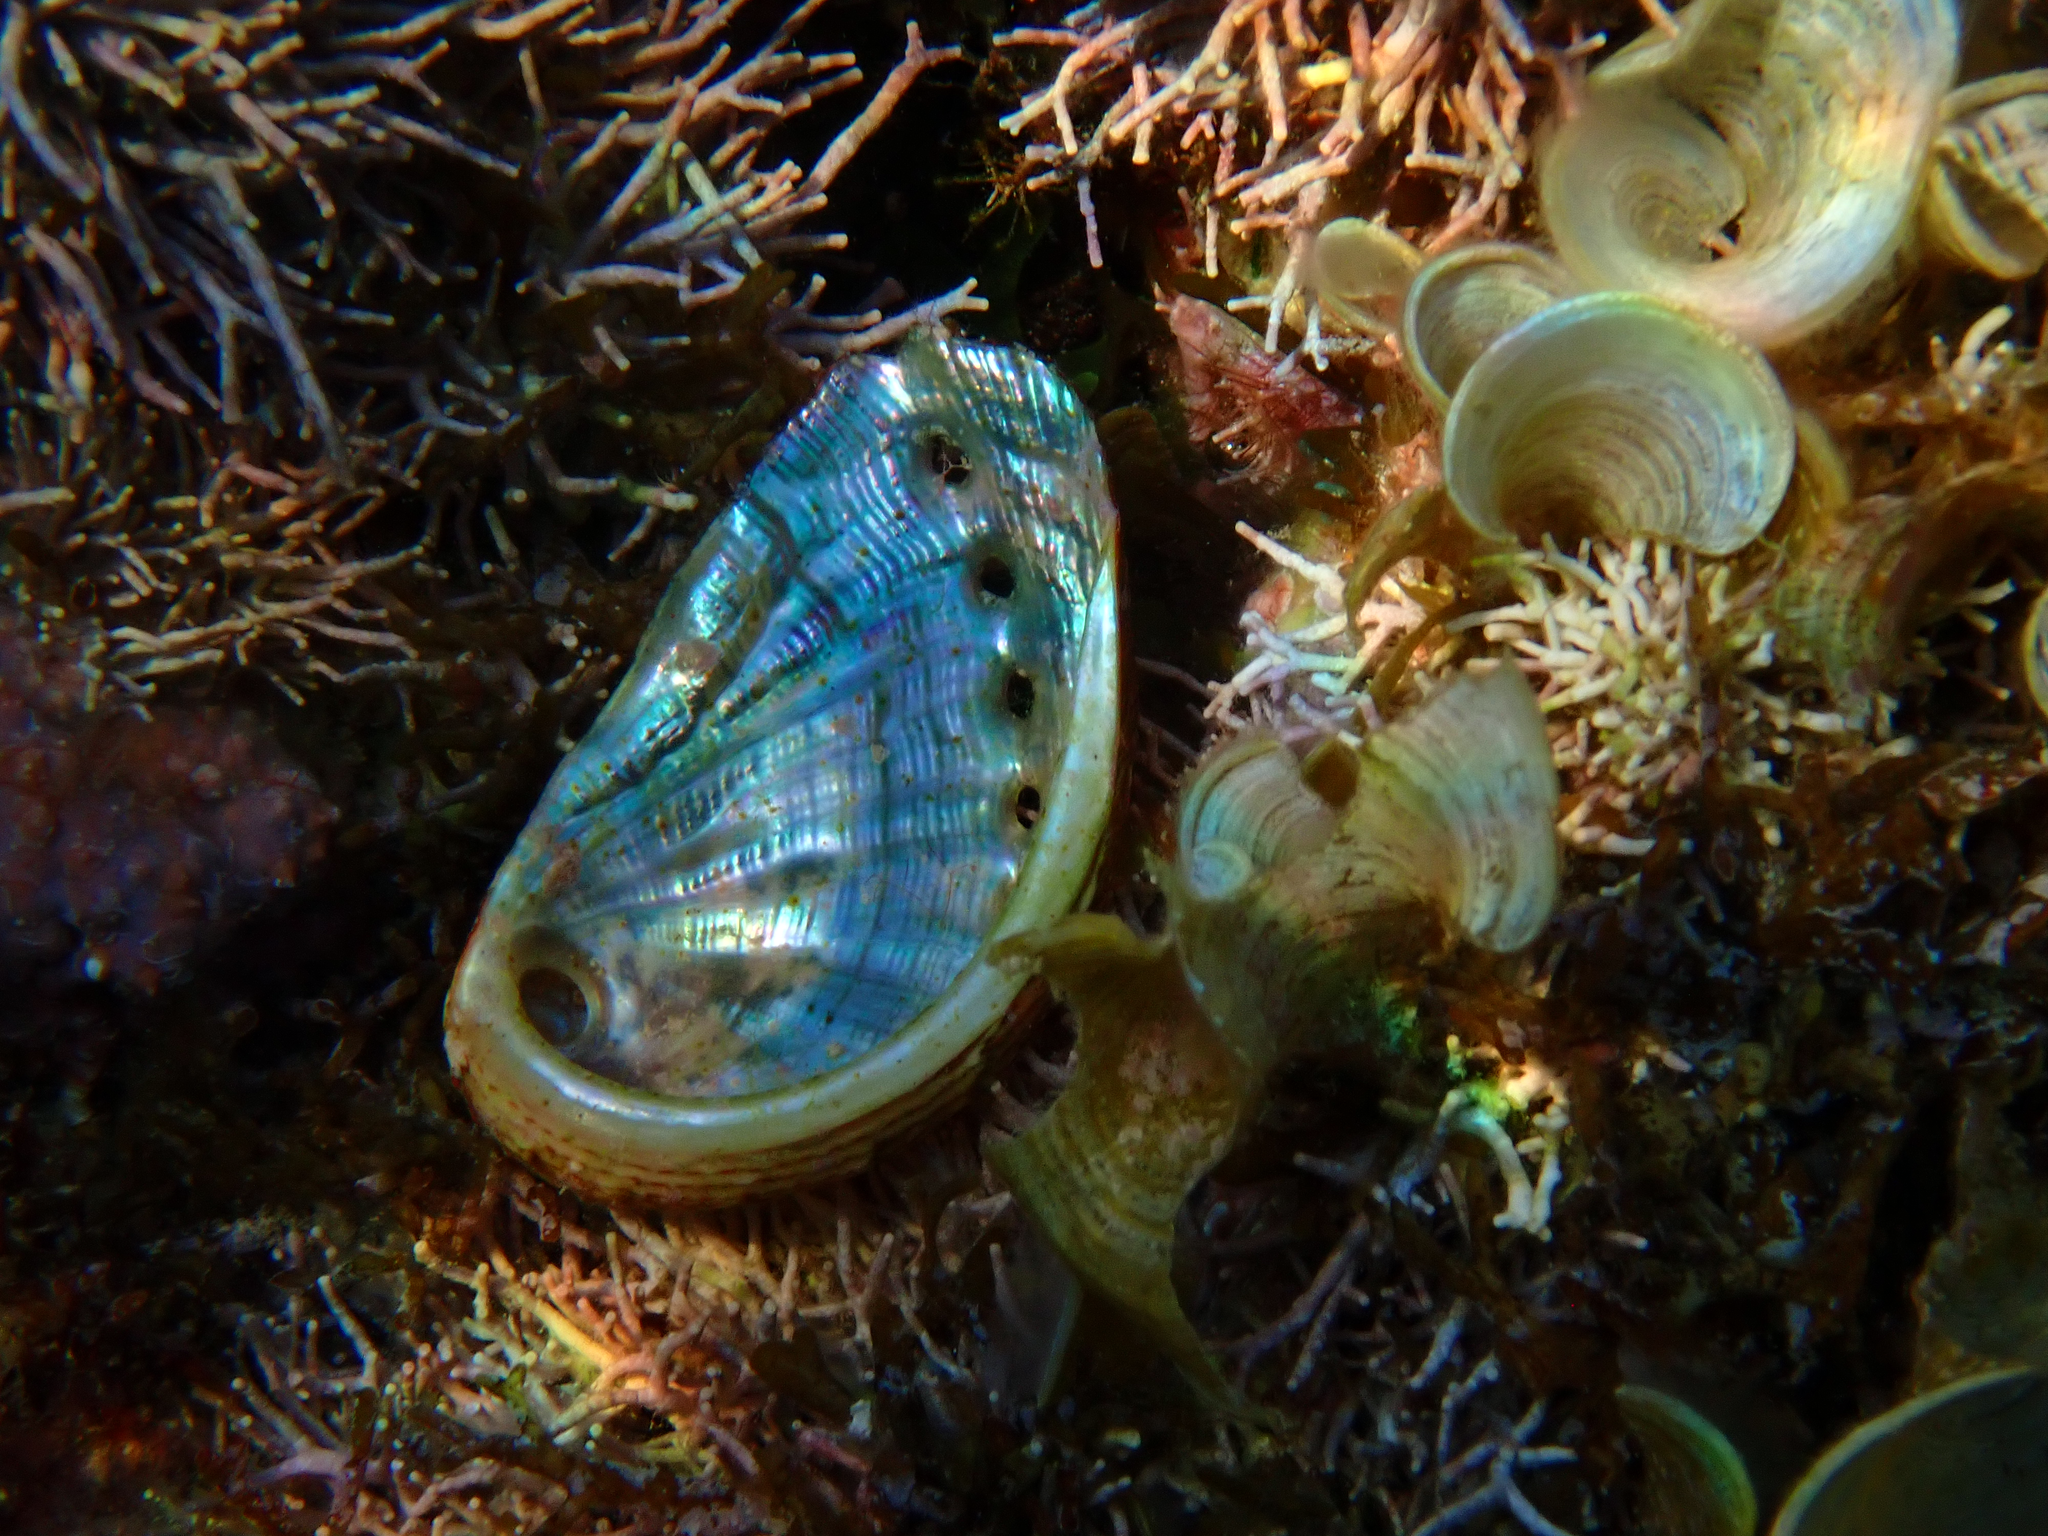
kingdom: Animalia
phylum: Mollusca
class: Gastropoda
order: Lepetellida
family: Haliotidae
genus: Haliotis
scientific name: Haliotis tuberculata
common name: Green ormer
